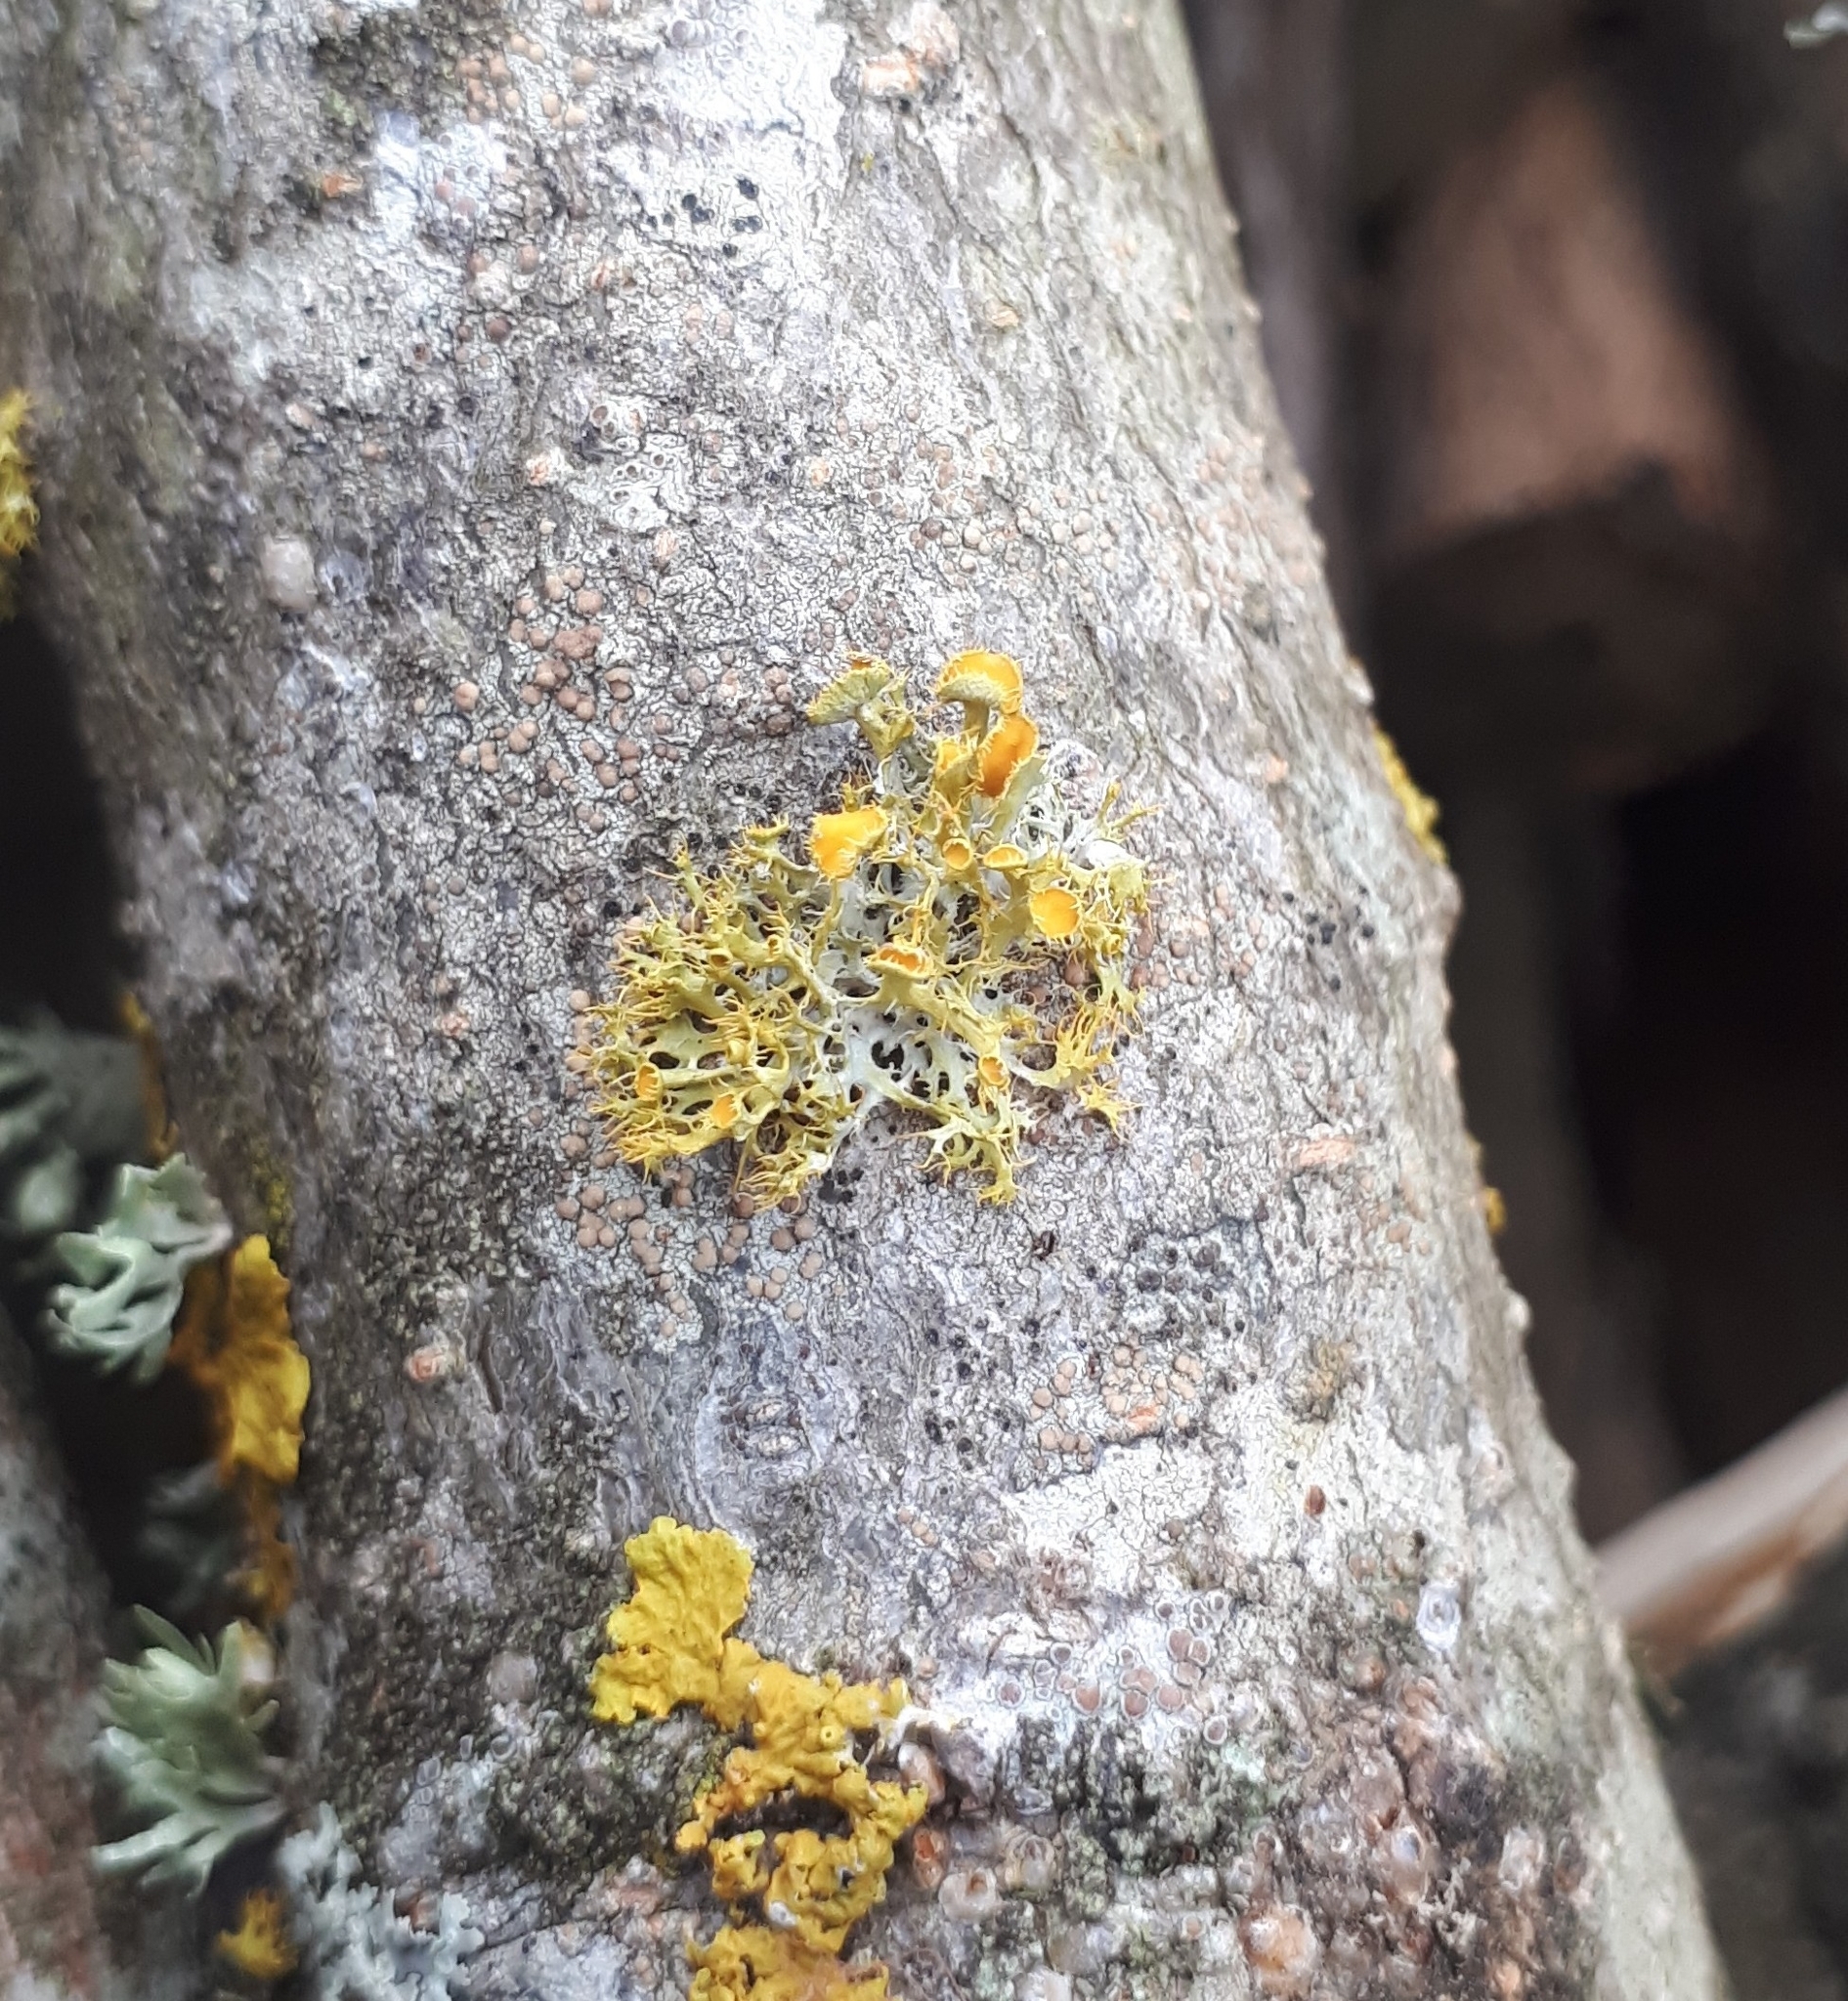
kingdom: Fungi
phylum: Ascomycota
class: Lecanoromycetes
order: Teloschistales
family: Teloschistaceae
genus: Niorma
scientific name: Niorma chrysophthalma
